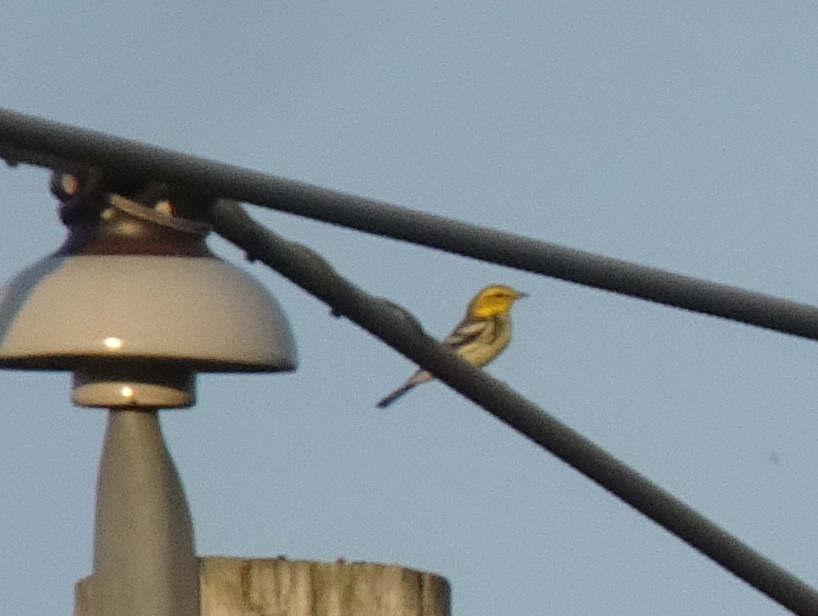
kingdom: Animalia
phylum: Chordata
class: Aves
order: Passeriformes
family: Parulidae
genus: Setophaga
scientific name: Setophaga virens
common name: Black-throated green warbler
